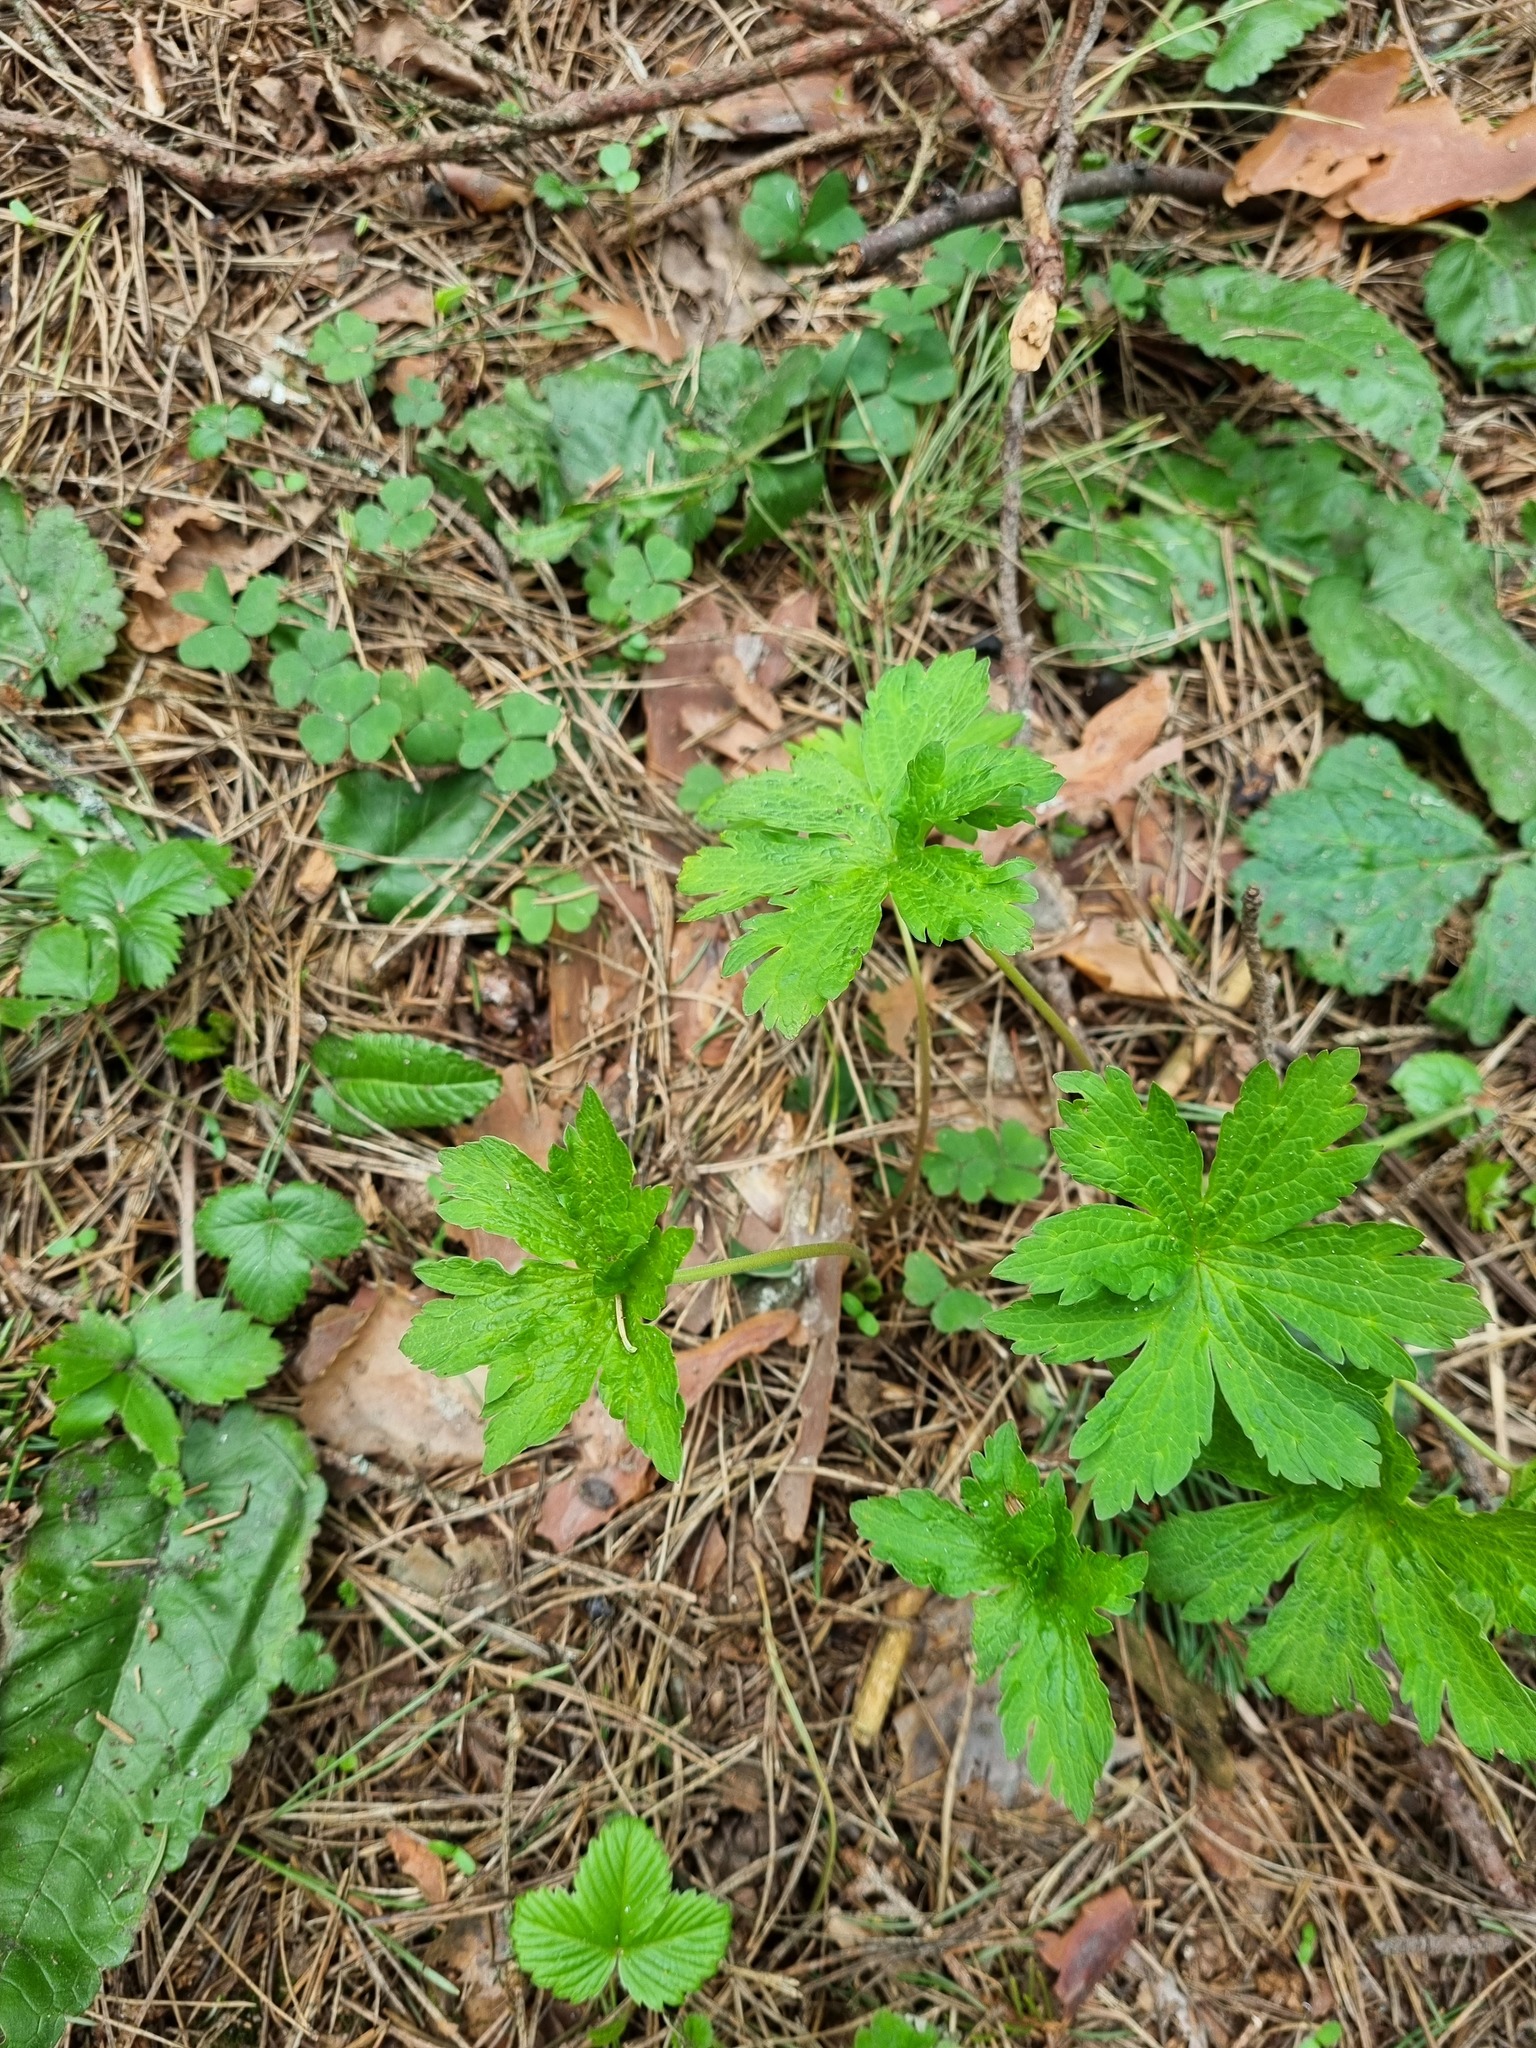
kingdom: Plantae
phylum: Tracheophyta
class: Magnoliopsida
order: Geraniales
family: Geraniaceae
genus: Geranium
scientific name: Geranium sylvaticum
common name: Wood crane's-bill
